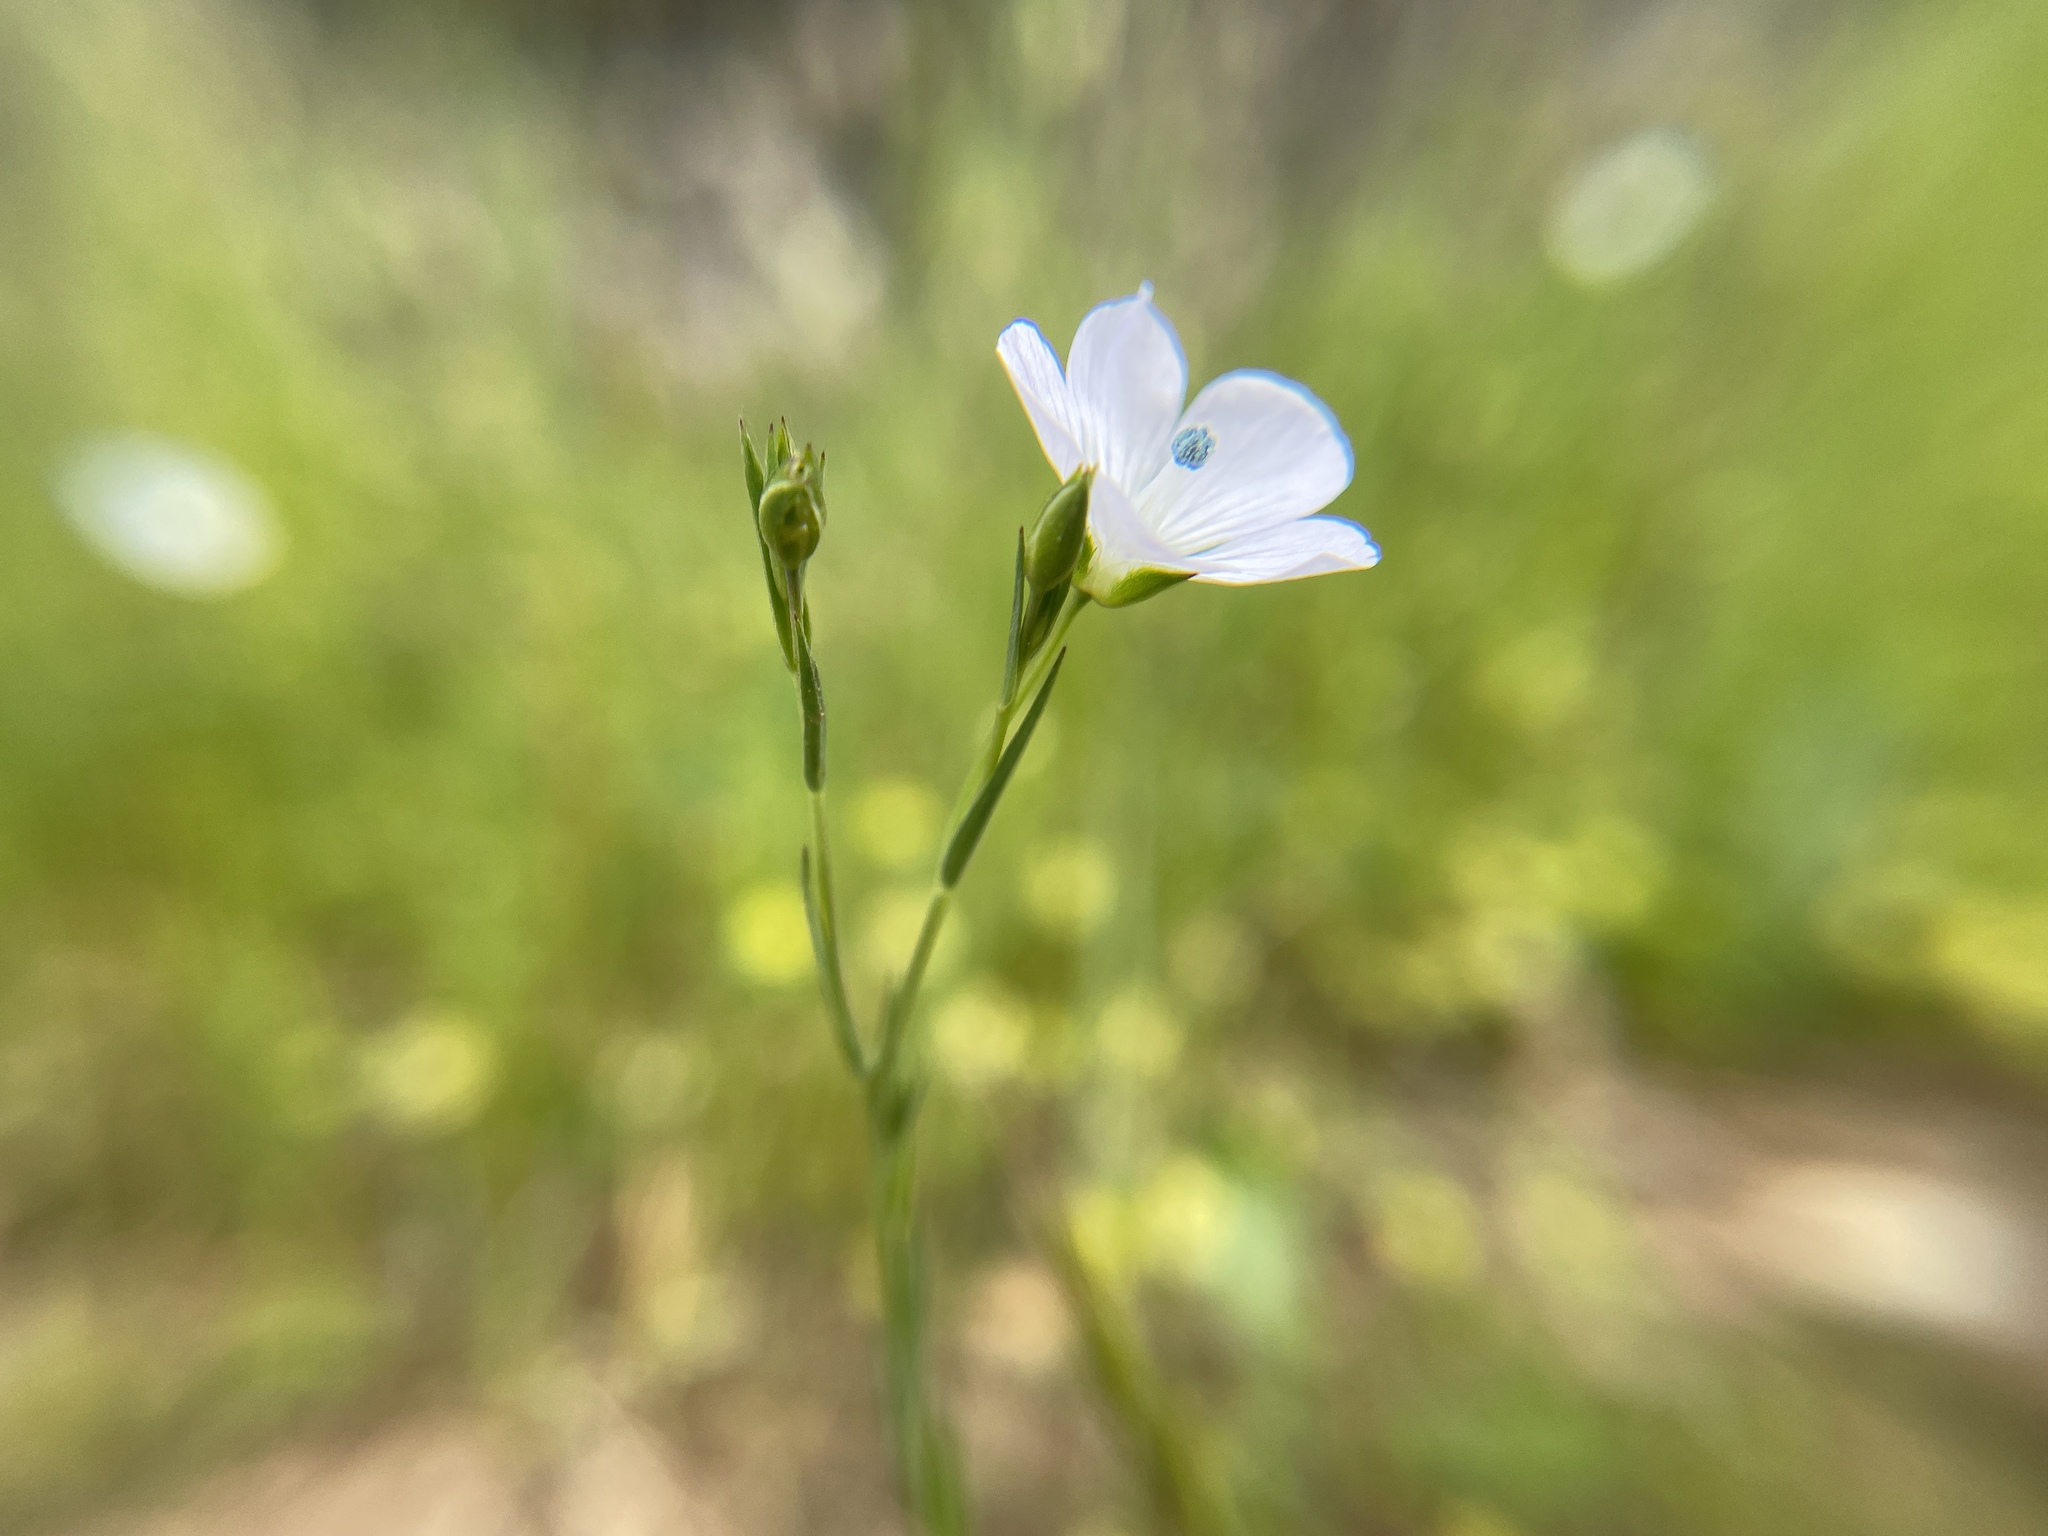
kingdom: Plantae
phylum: Tracheophyta
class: Magnoliopsida
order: Malpighiales
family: Linaceae
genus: Linum
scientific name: Linum bienne
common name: Pale flax
